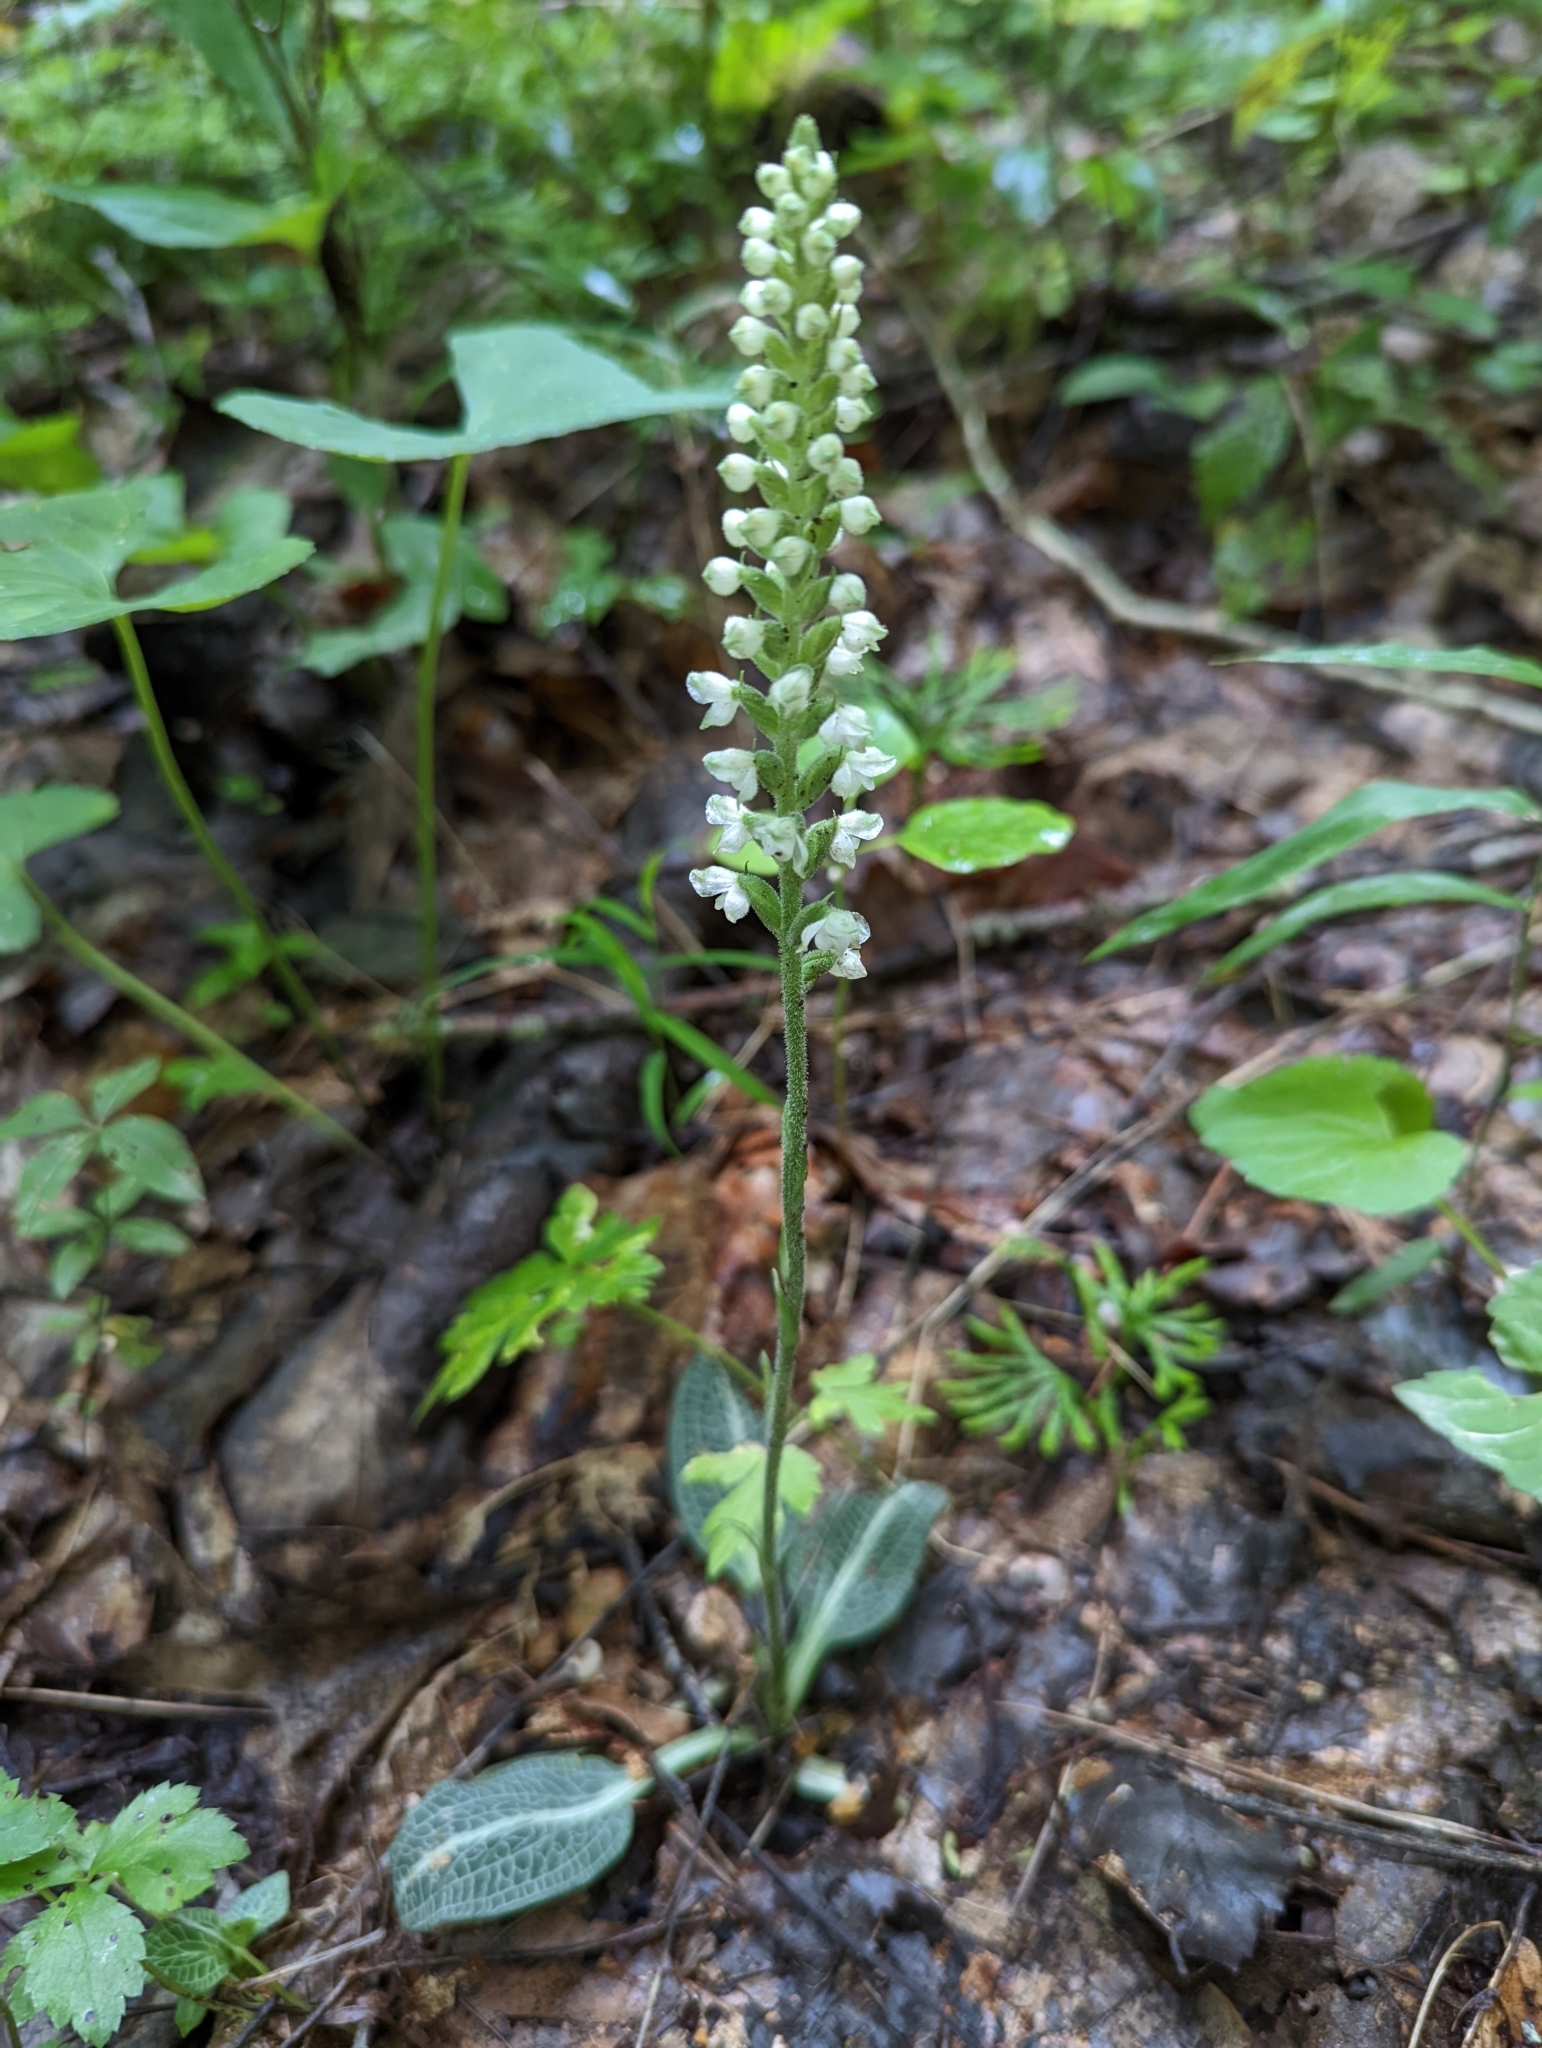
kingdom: Plantae
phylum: Tracheophyta
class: Liliopsida
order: Asparagales
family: Orchidaceae
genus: Goodyera
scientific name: Goodyera pubescens
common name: Downy rattlesnake-plantain
